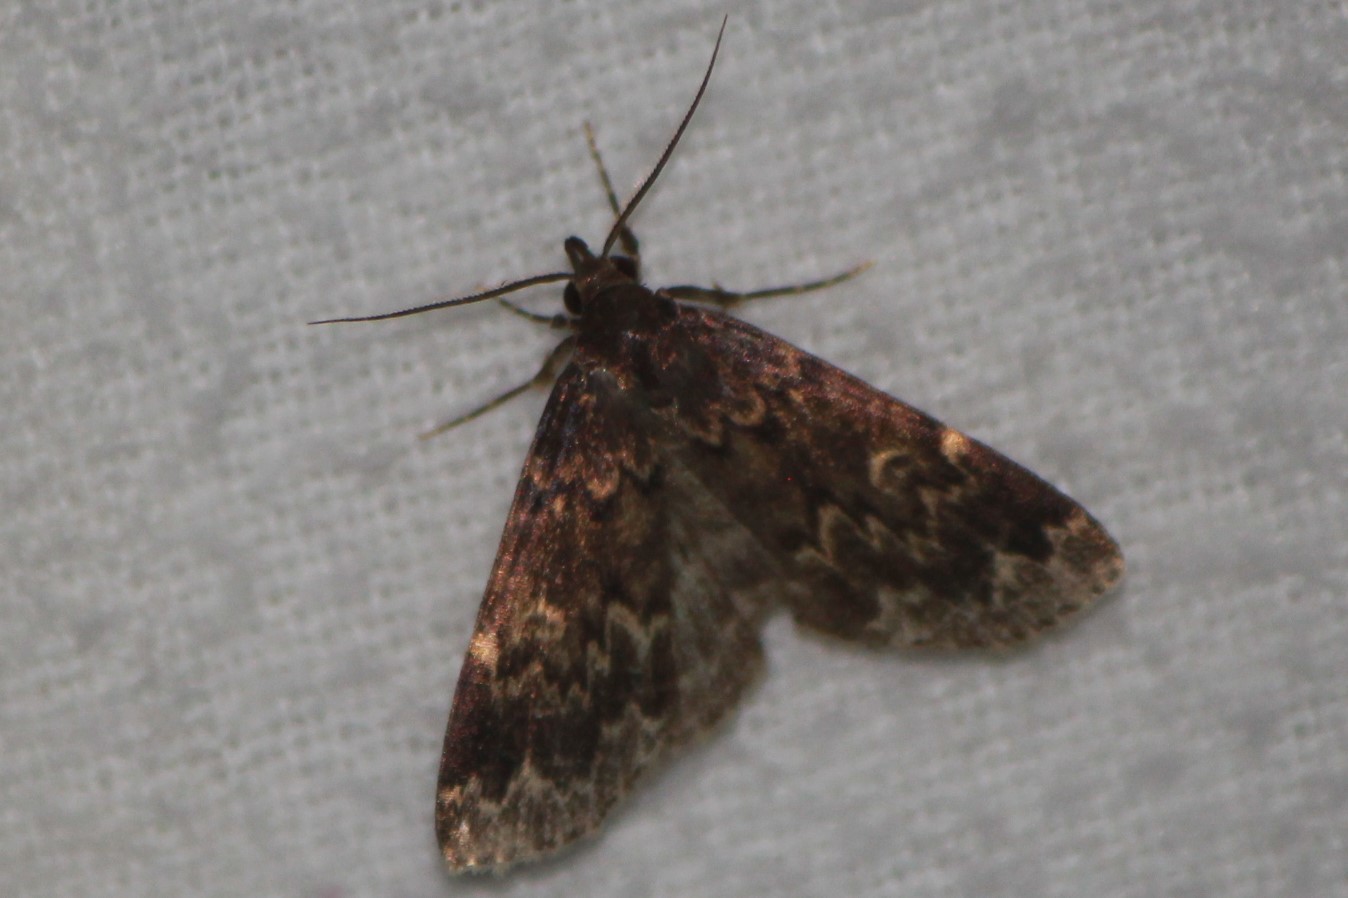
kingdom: Animalia
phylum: Arthropoda
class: Insecta
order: Lepidoptera
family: Erebidae
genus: Idia
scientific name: Idia lubricalis
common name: Twin-striped tabby
